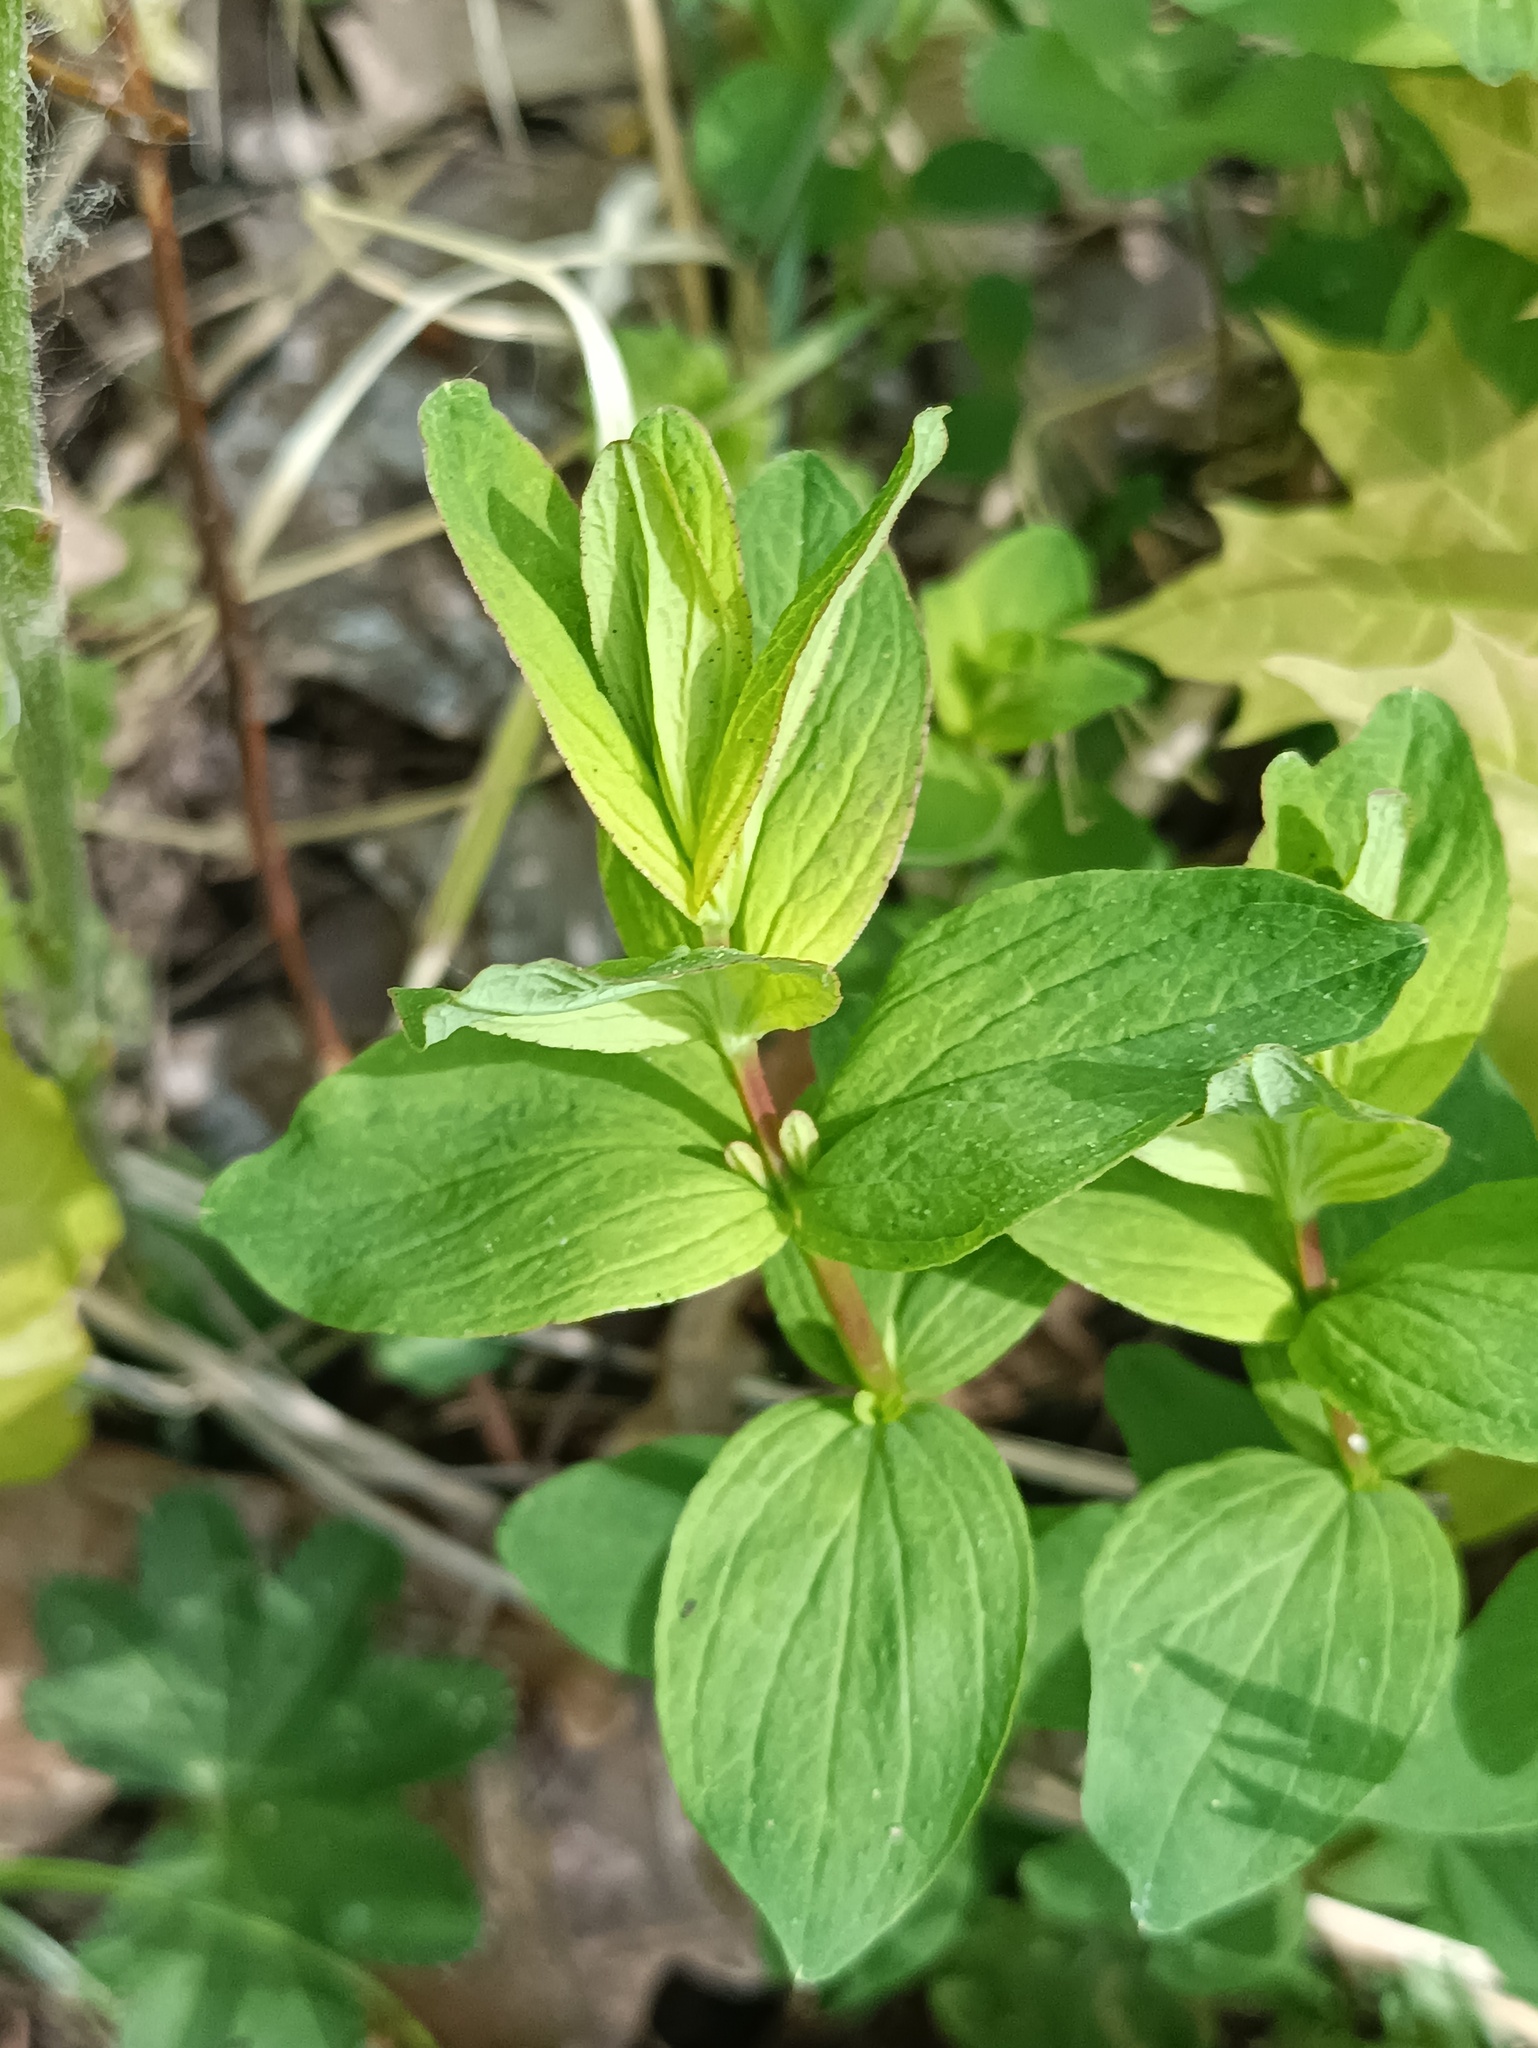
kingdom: Plantae
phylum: Tracheophyta
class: Magnoliopsida
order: Malpighiales
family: Hypericaceae
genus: Hypericum
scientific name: Hypericum maculatum
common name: Imperforate st. john's-wort
